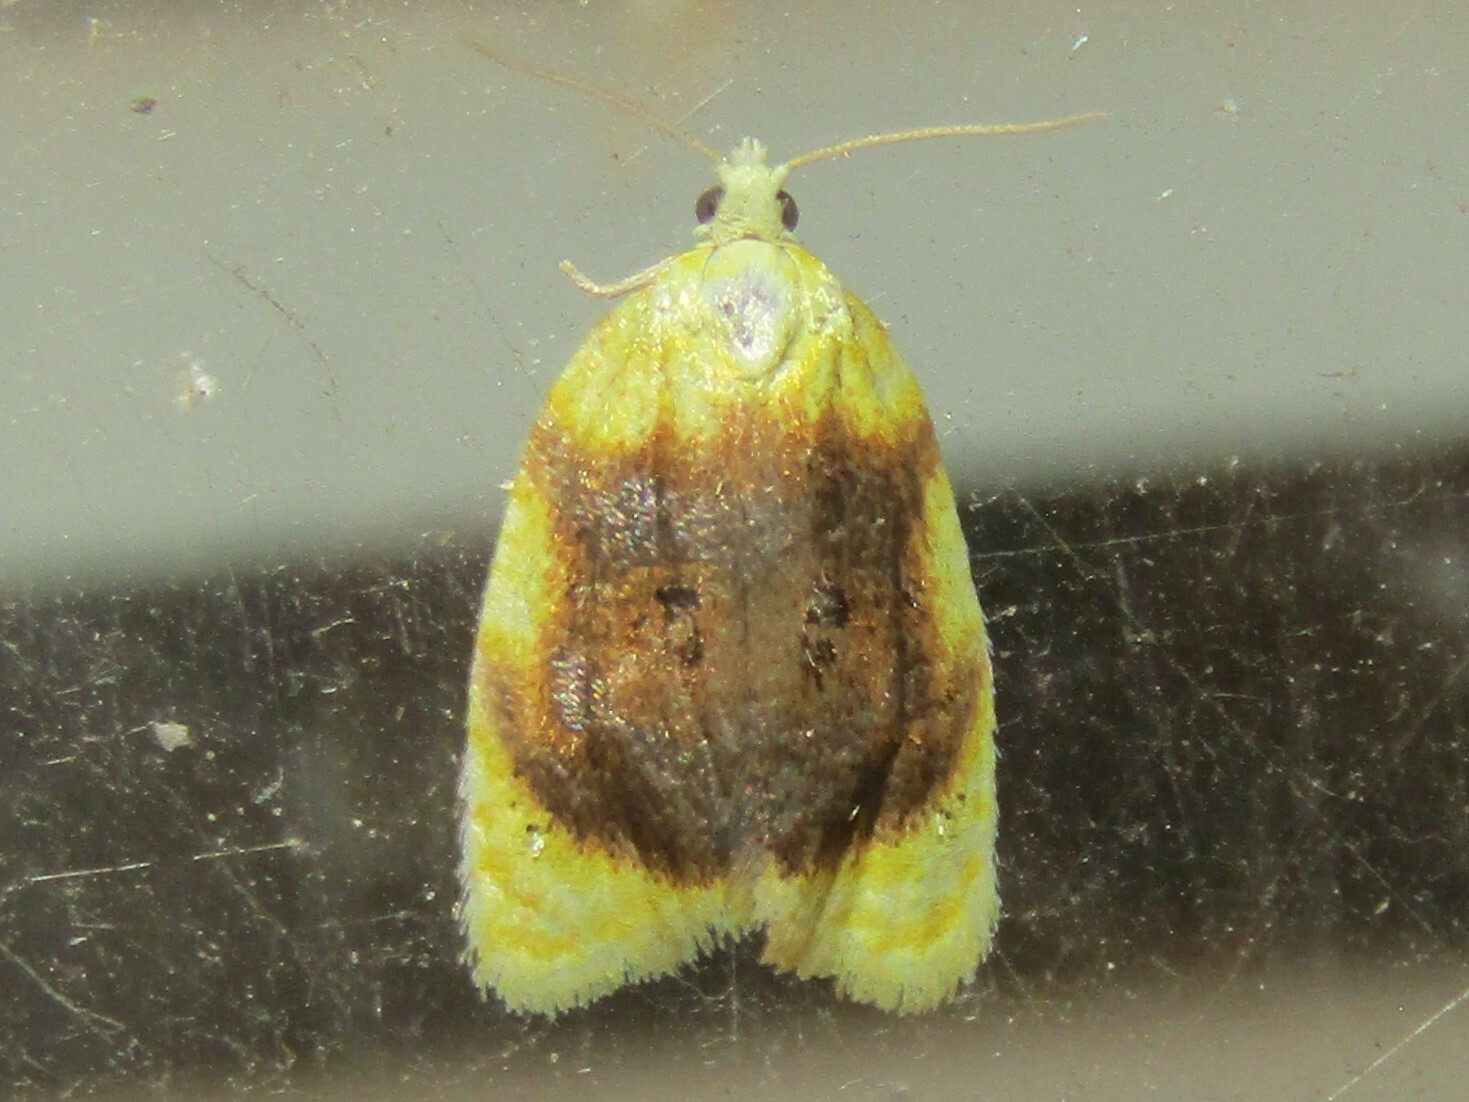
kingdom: Animalia
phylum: Arthropoda
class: Insecta
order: Lepidoptera
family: Tortricidae
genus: Acleris
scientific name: Acleris semipurpurana
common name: Oak leaftier moth
